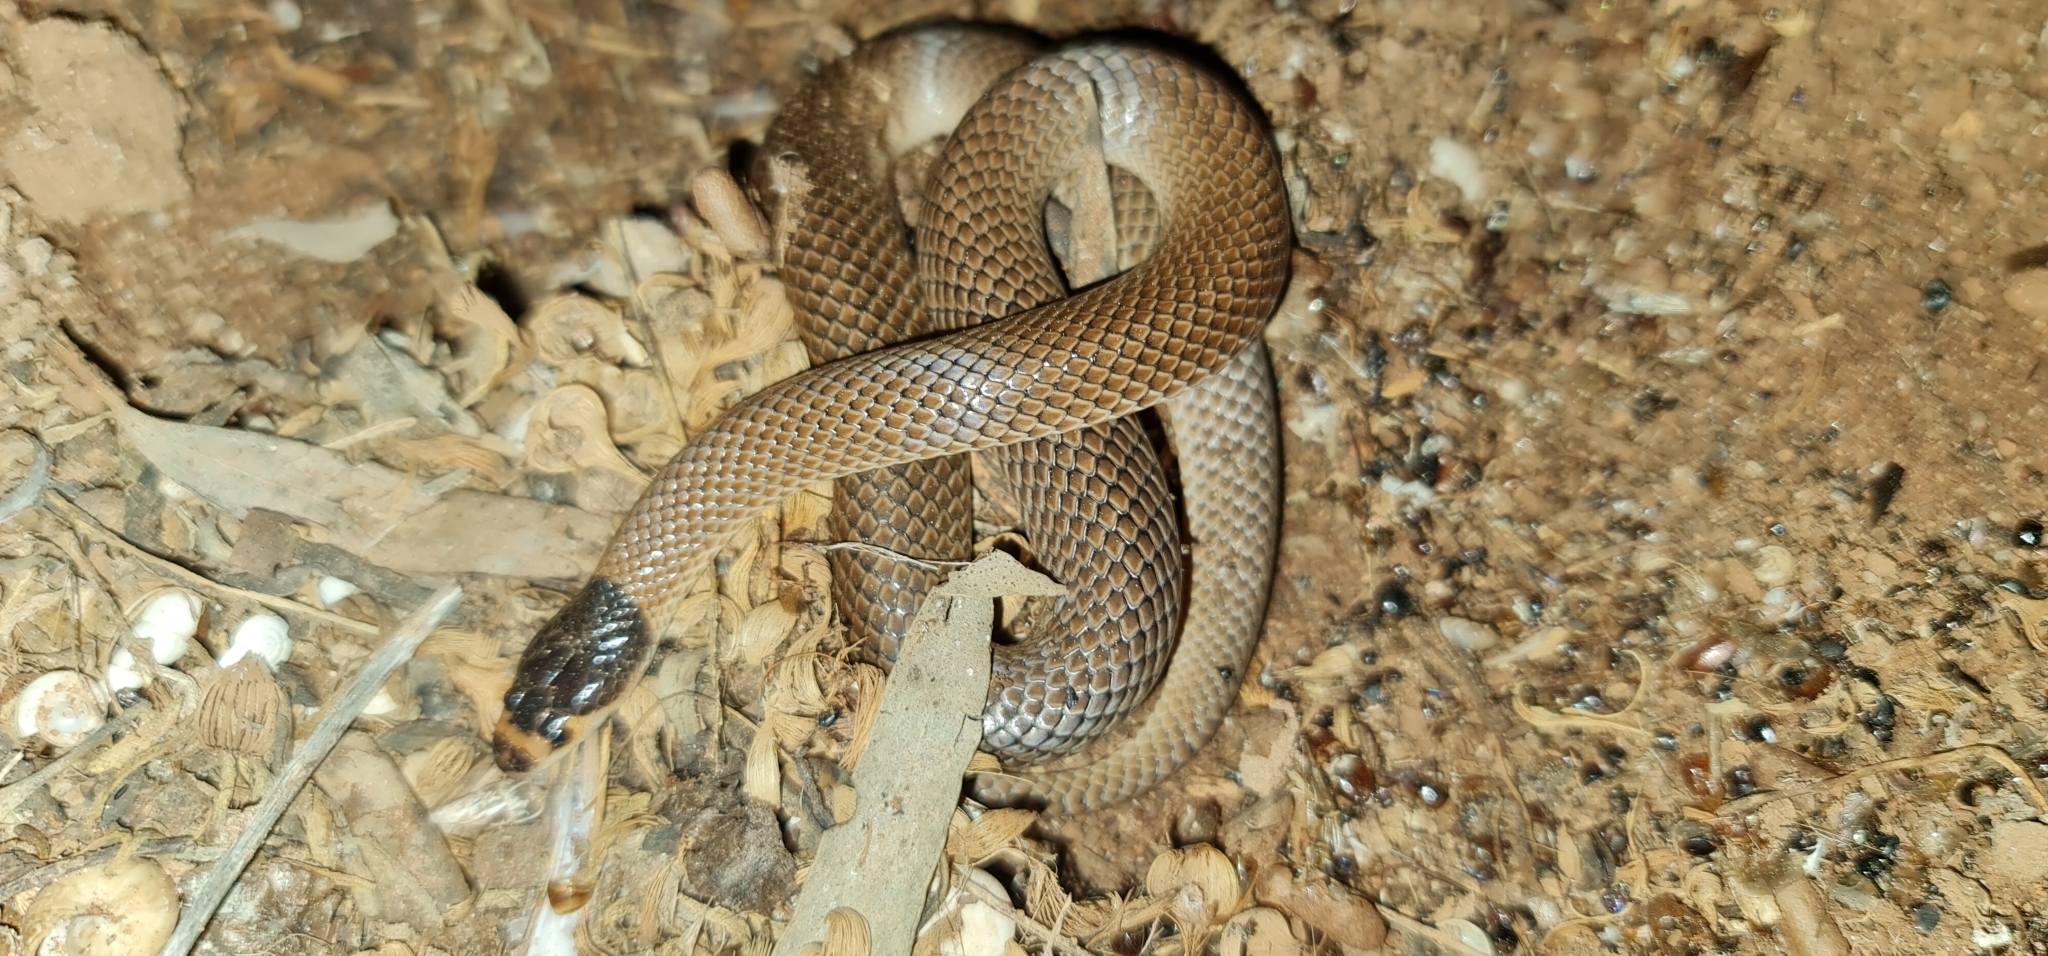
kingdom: Animalia
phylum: Chordata
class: Squamata
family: Elapidae
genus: Suta
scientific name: Suta spectabilis
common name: Bush’s hooded snake
